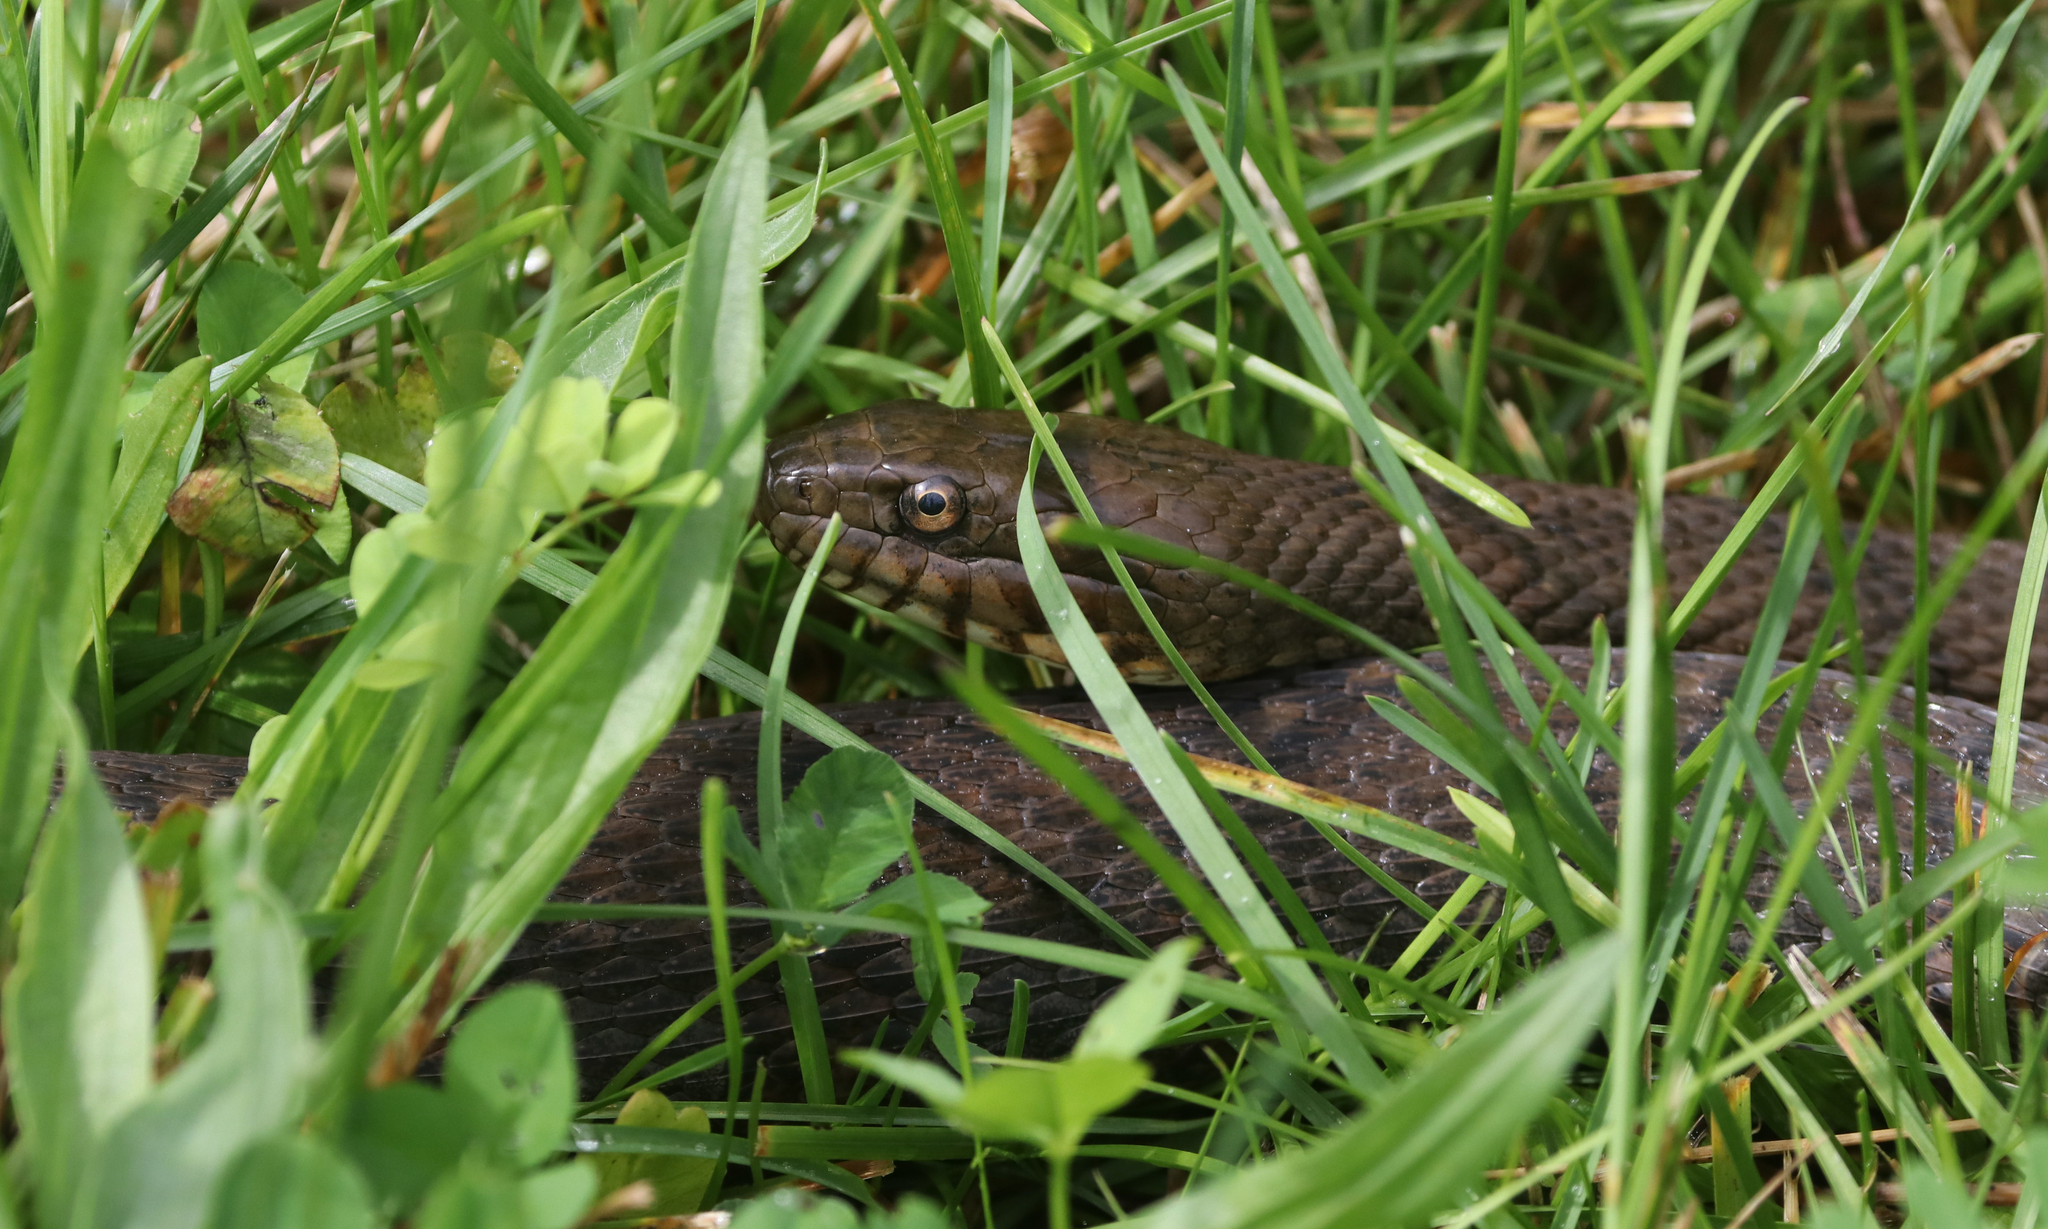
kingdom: Animalia
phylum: Chordata
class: Squamata
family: Colubridae
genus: Nerodia
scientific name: Nerodia sipedon
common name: Northern water snake
